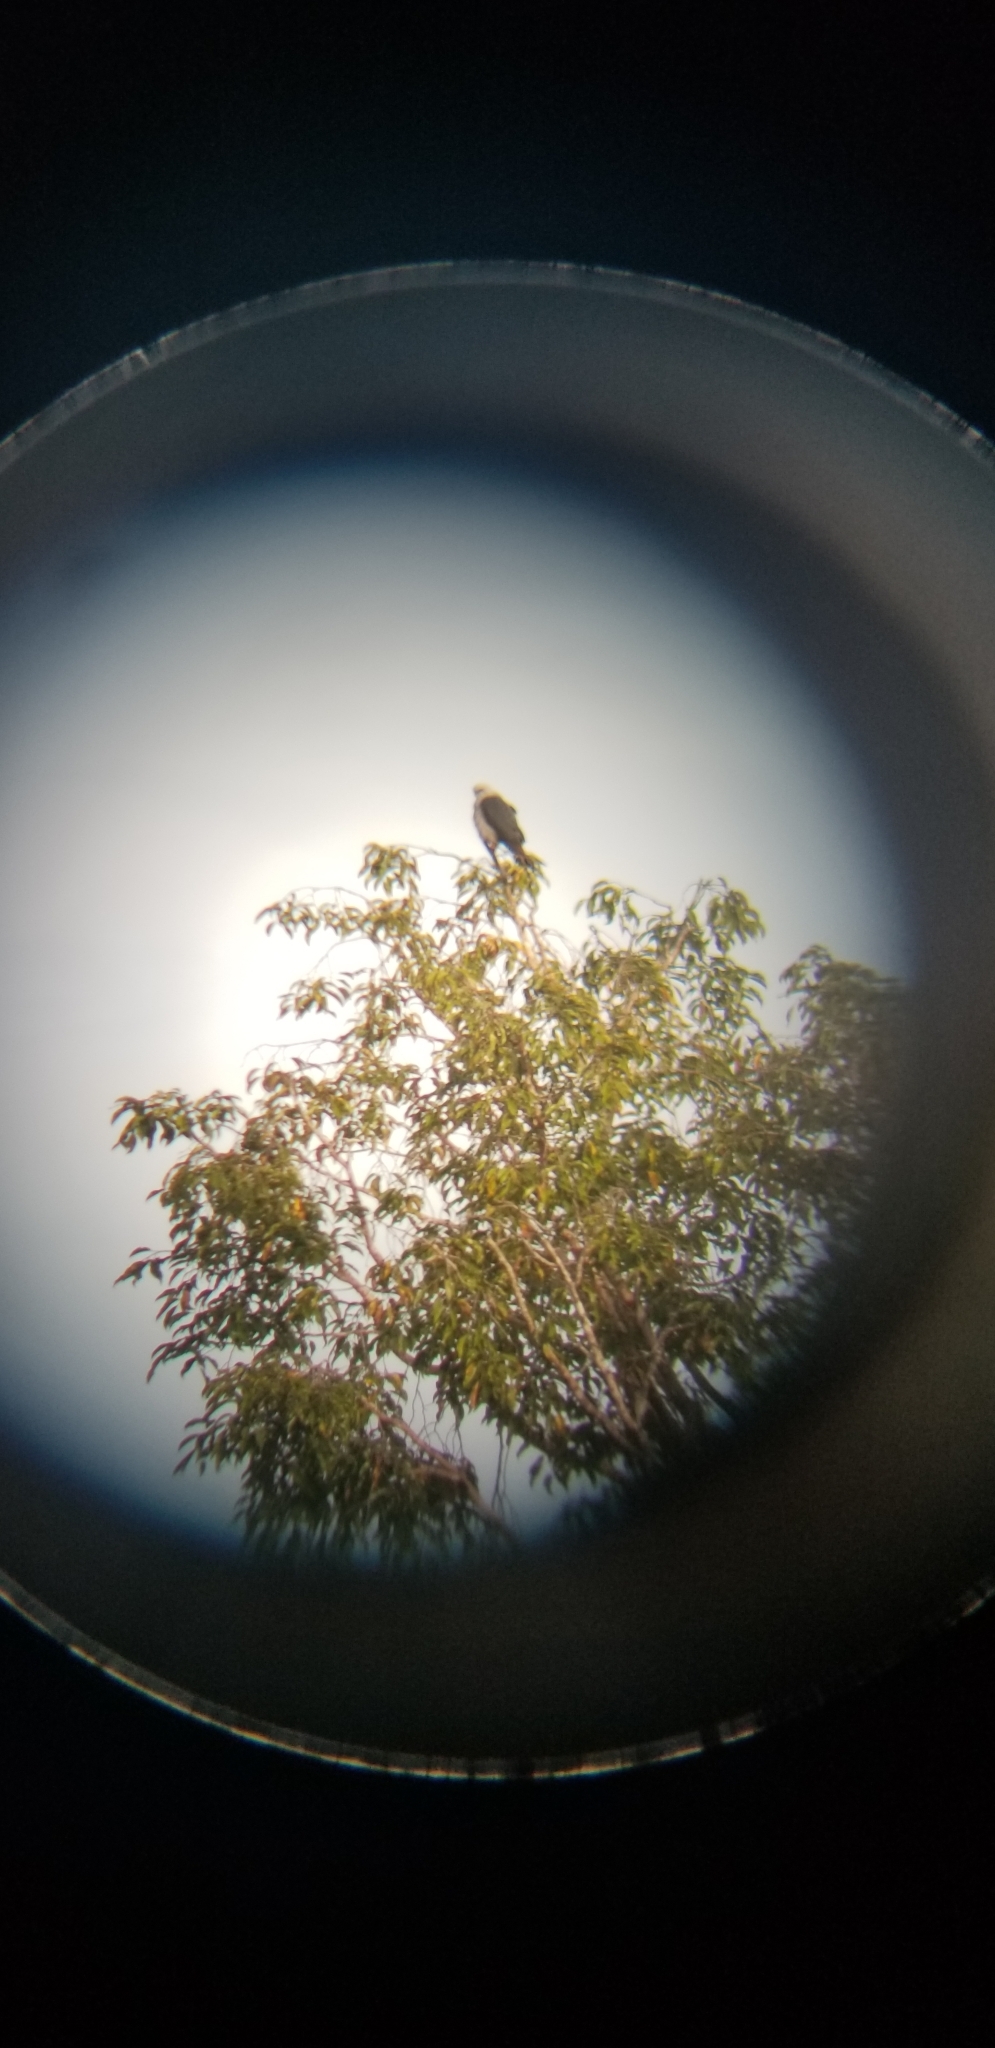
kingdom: Animalia
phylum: Chordata
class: Aves
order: Accipitriformes
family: Accipitridae
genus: Ictinia
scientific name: Ictinia plumbea
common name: Plumbeous kite
